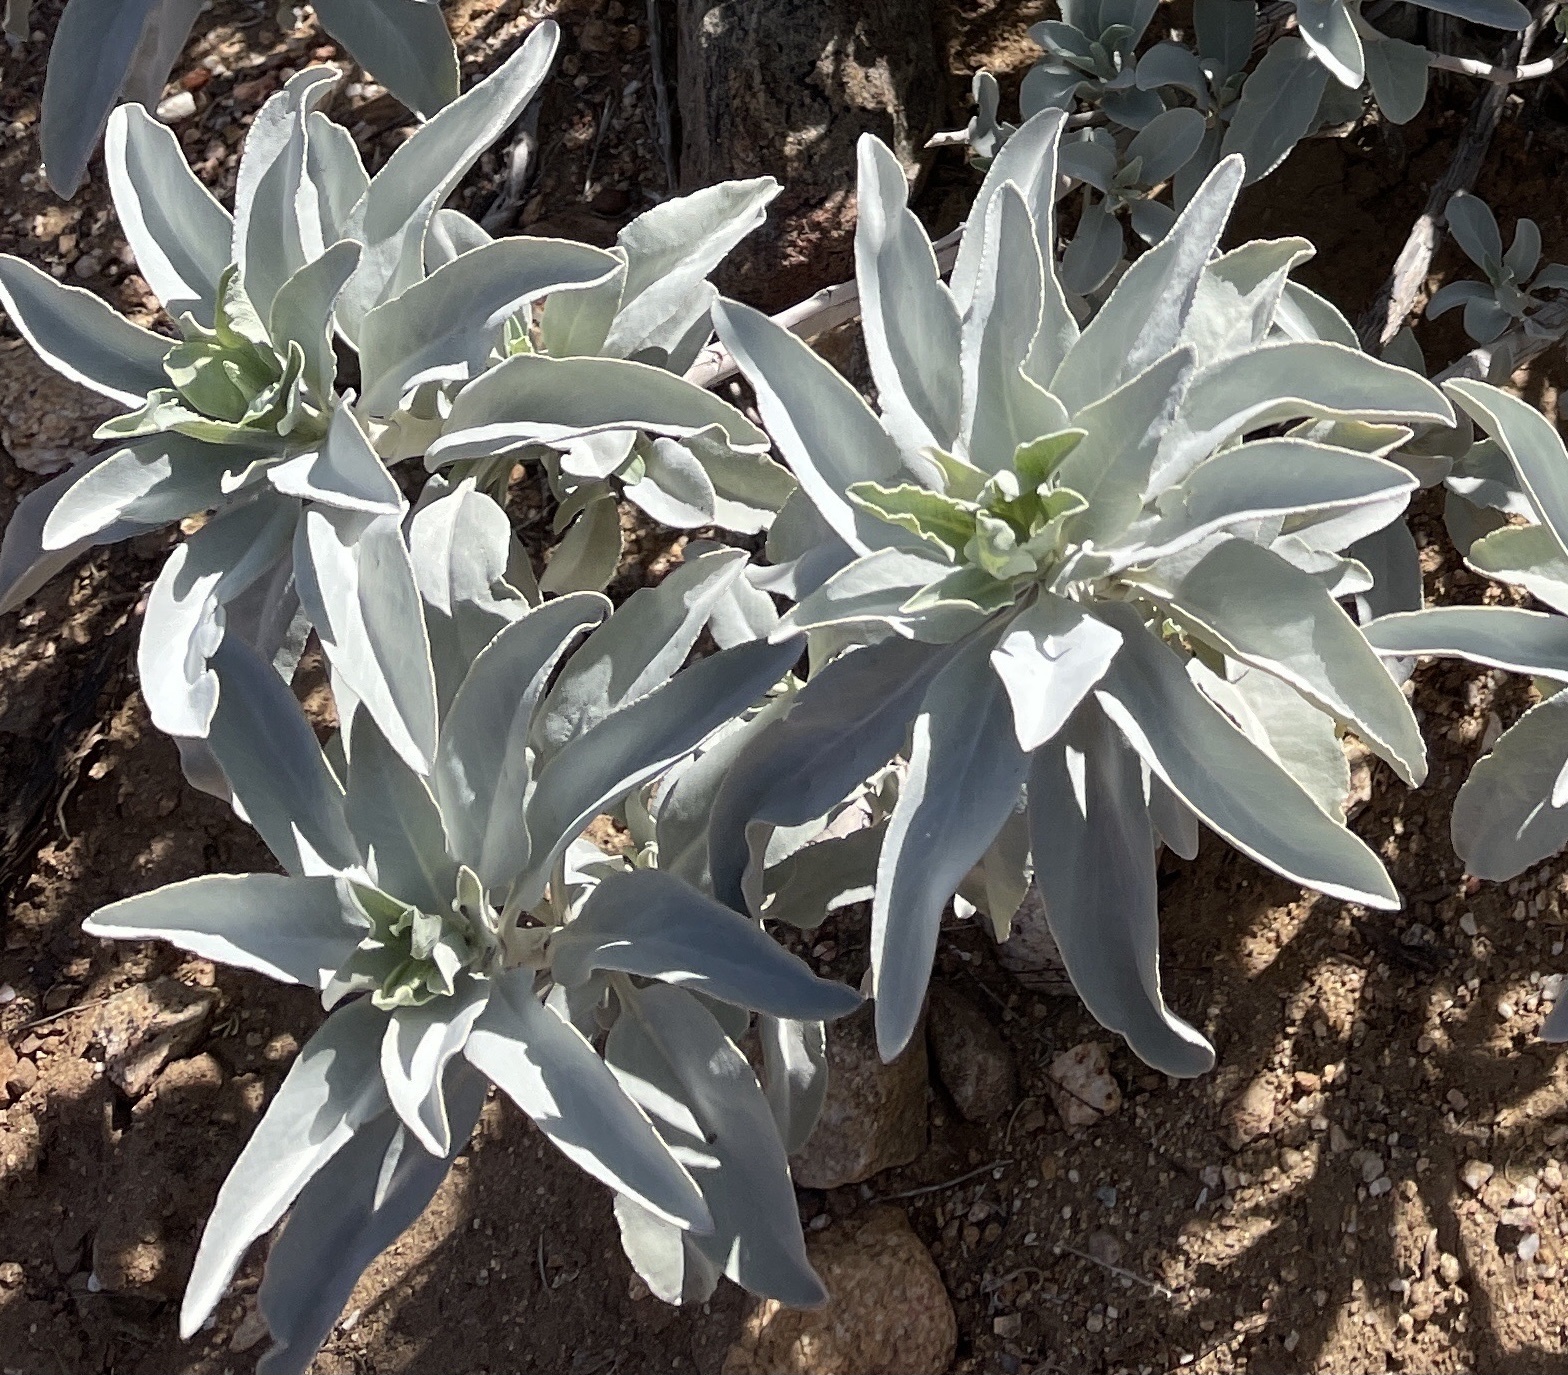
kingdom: Plantae
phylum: Tracheophyta
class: Magnoliopsida
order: Lamiales
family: Lamiaceae
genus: Salvia
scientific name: Salvia apiana
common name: White sage
